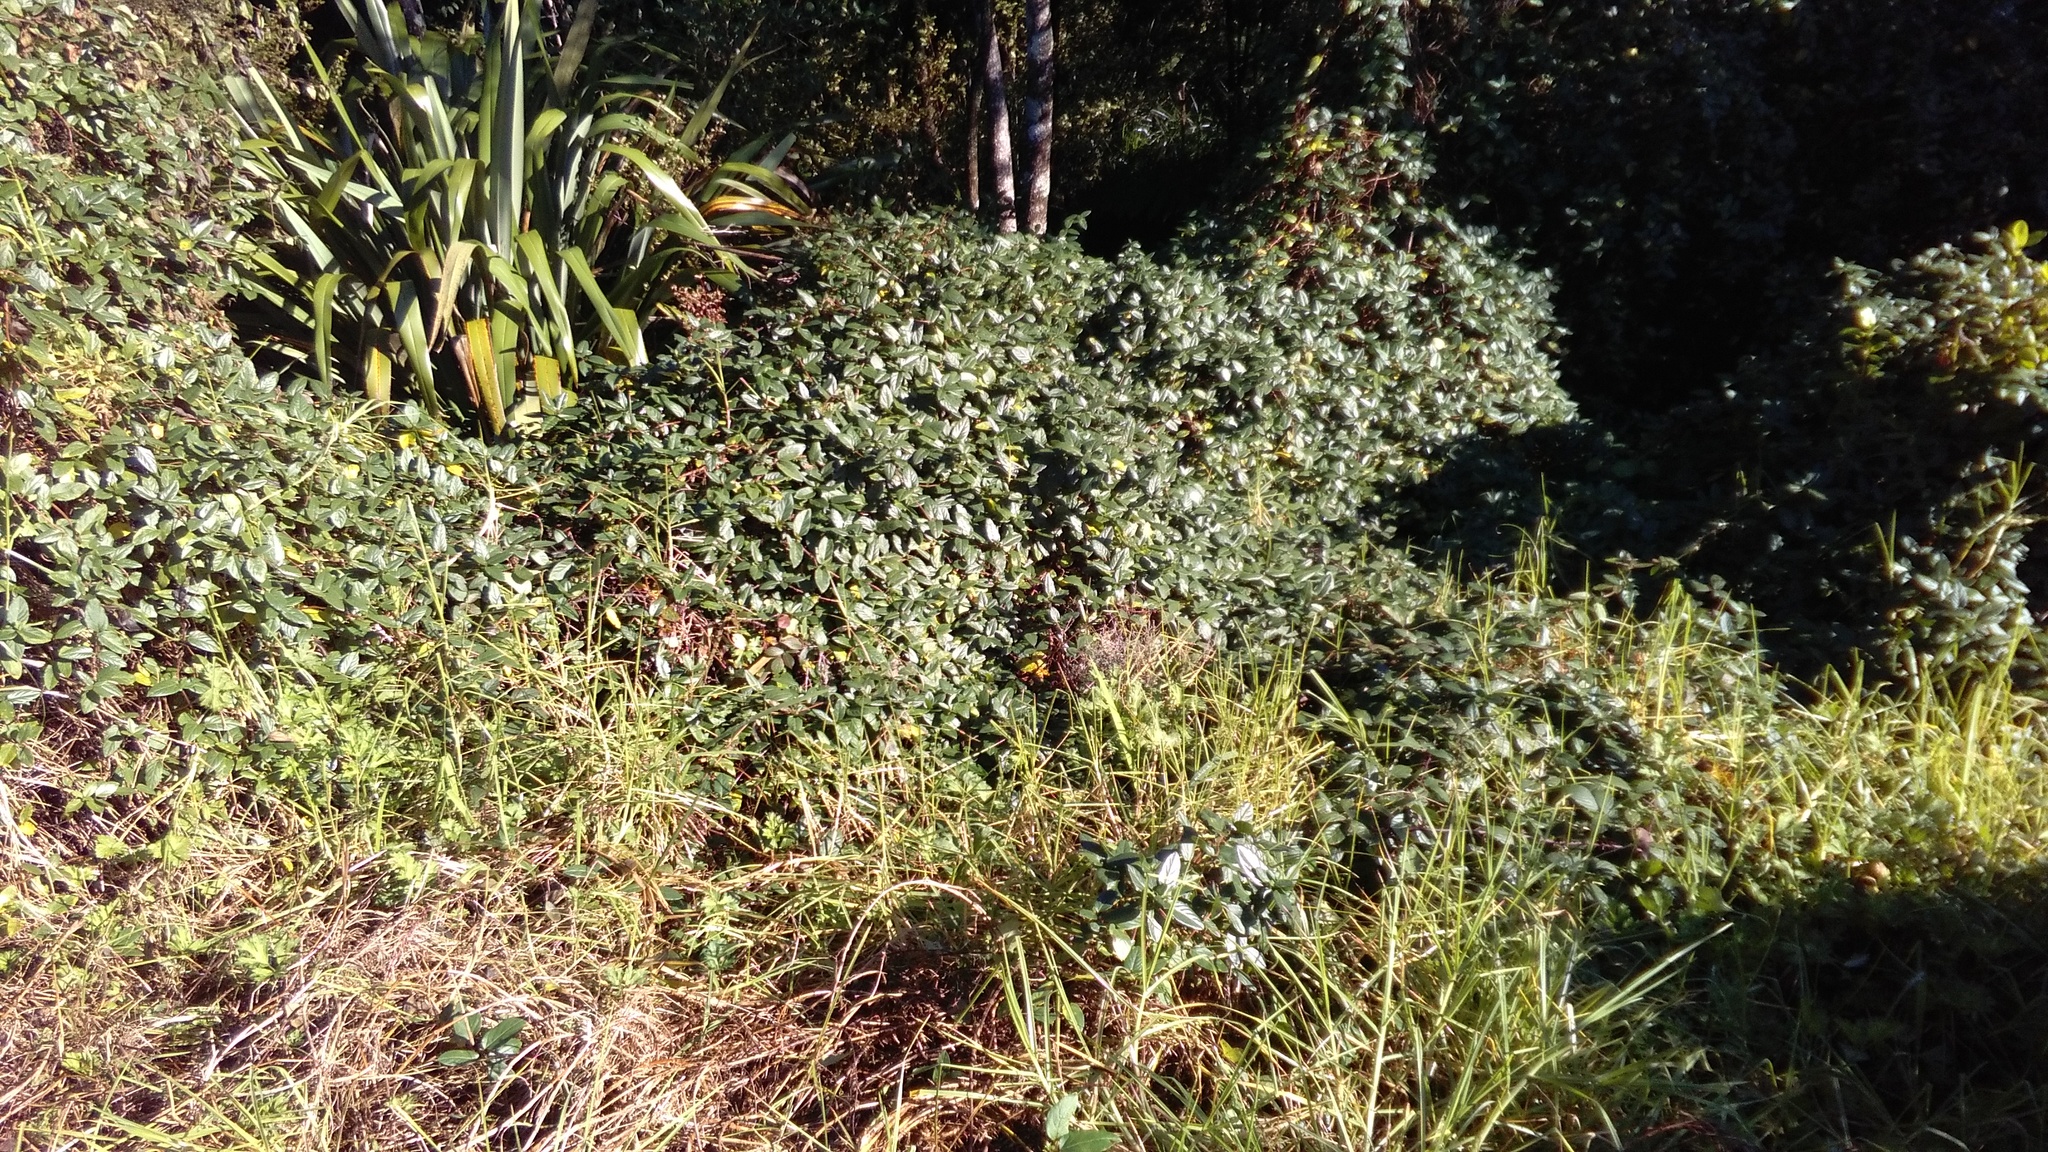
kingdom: Plantae
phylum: Tracheophyta
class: Liliopsida
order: Poales
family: Poaceae
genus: Cenchrus
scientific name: Cenchrus clandestinus
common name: Kikuyugrass
